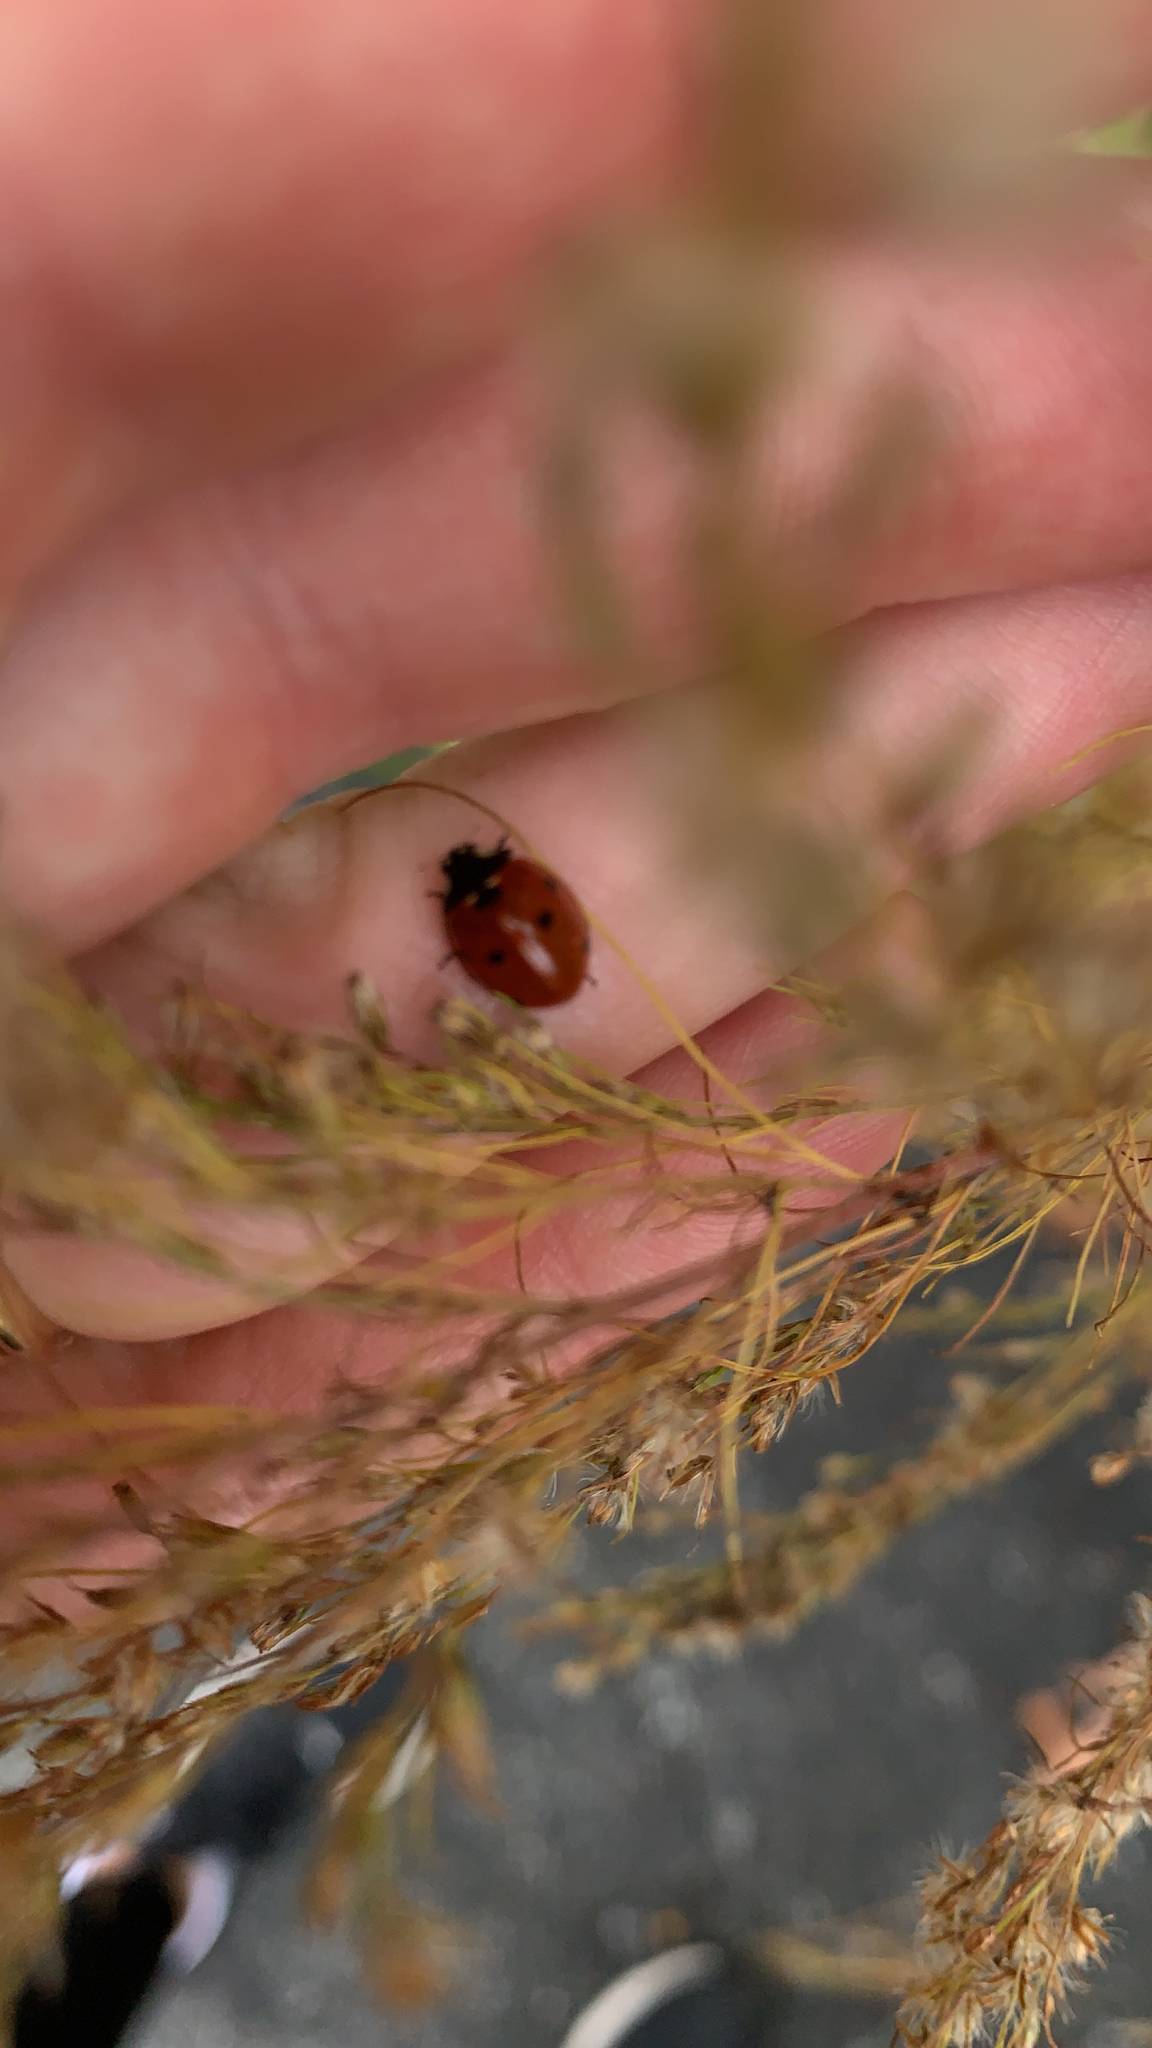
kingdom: Animalia
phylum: Arthropoda
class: Insecta
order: Coleoptera
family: Coccinellidae
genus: Coccinella
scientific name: Coccinella septempunctata
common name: Sevenspotted lady beetle
